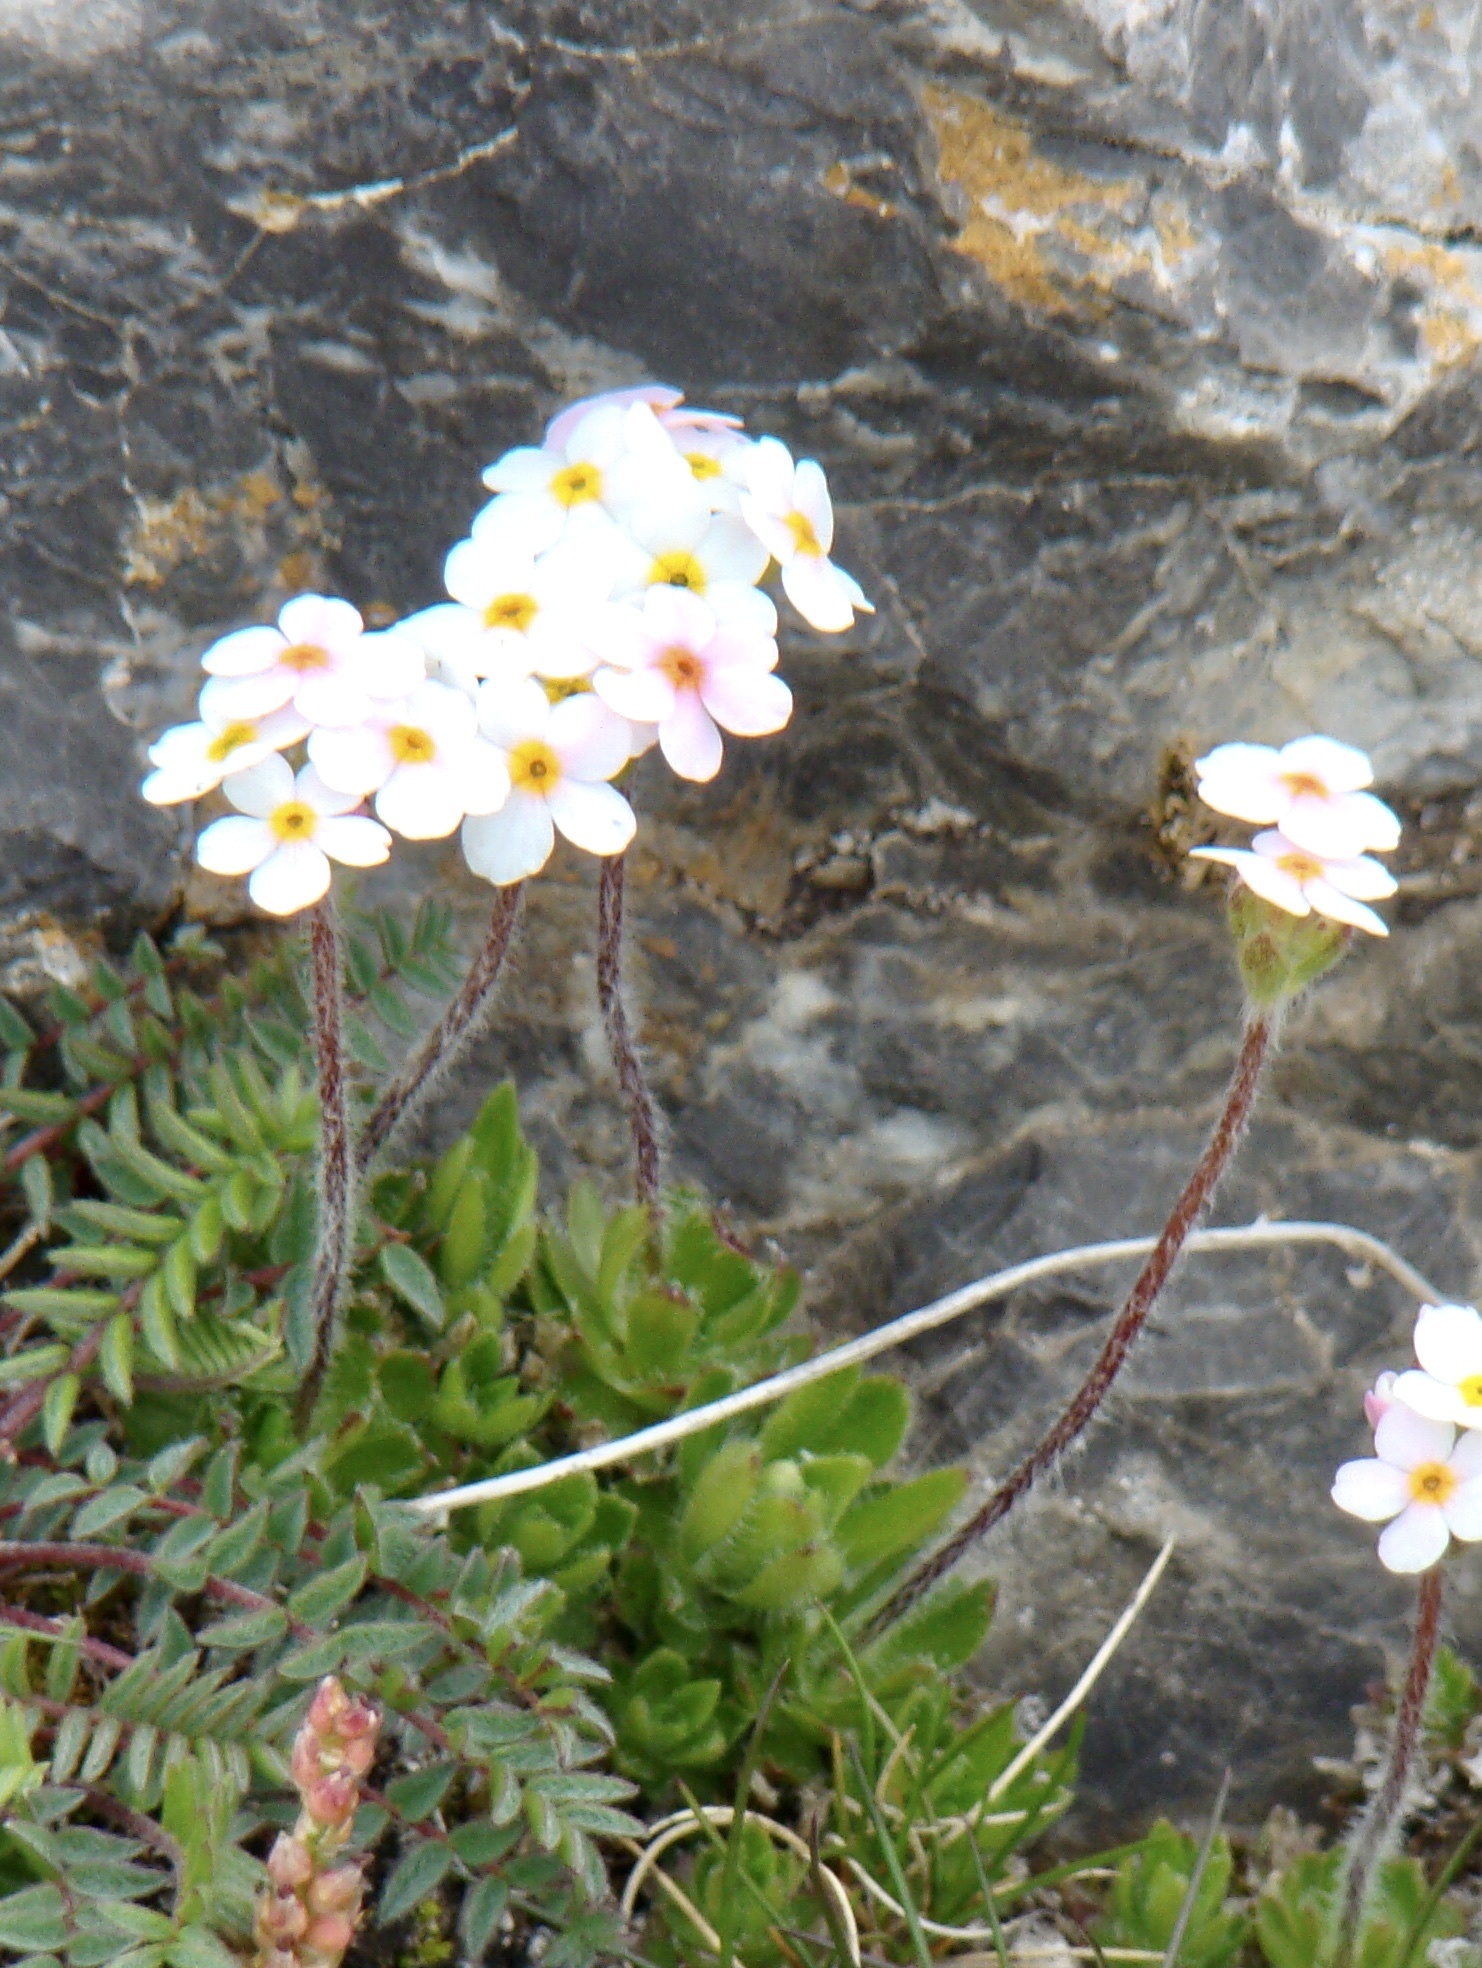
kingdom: Plantae
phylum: Tracheophyta
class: Magnoliopsida
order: Ericales
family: Primulaceae
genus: Androsace
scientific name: Androsace chamaejasme
